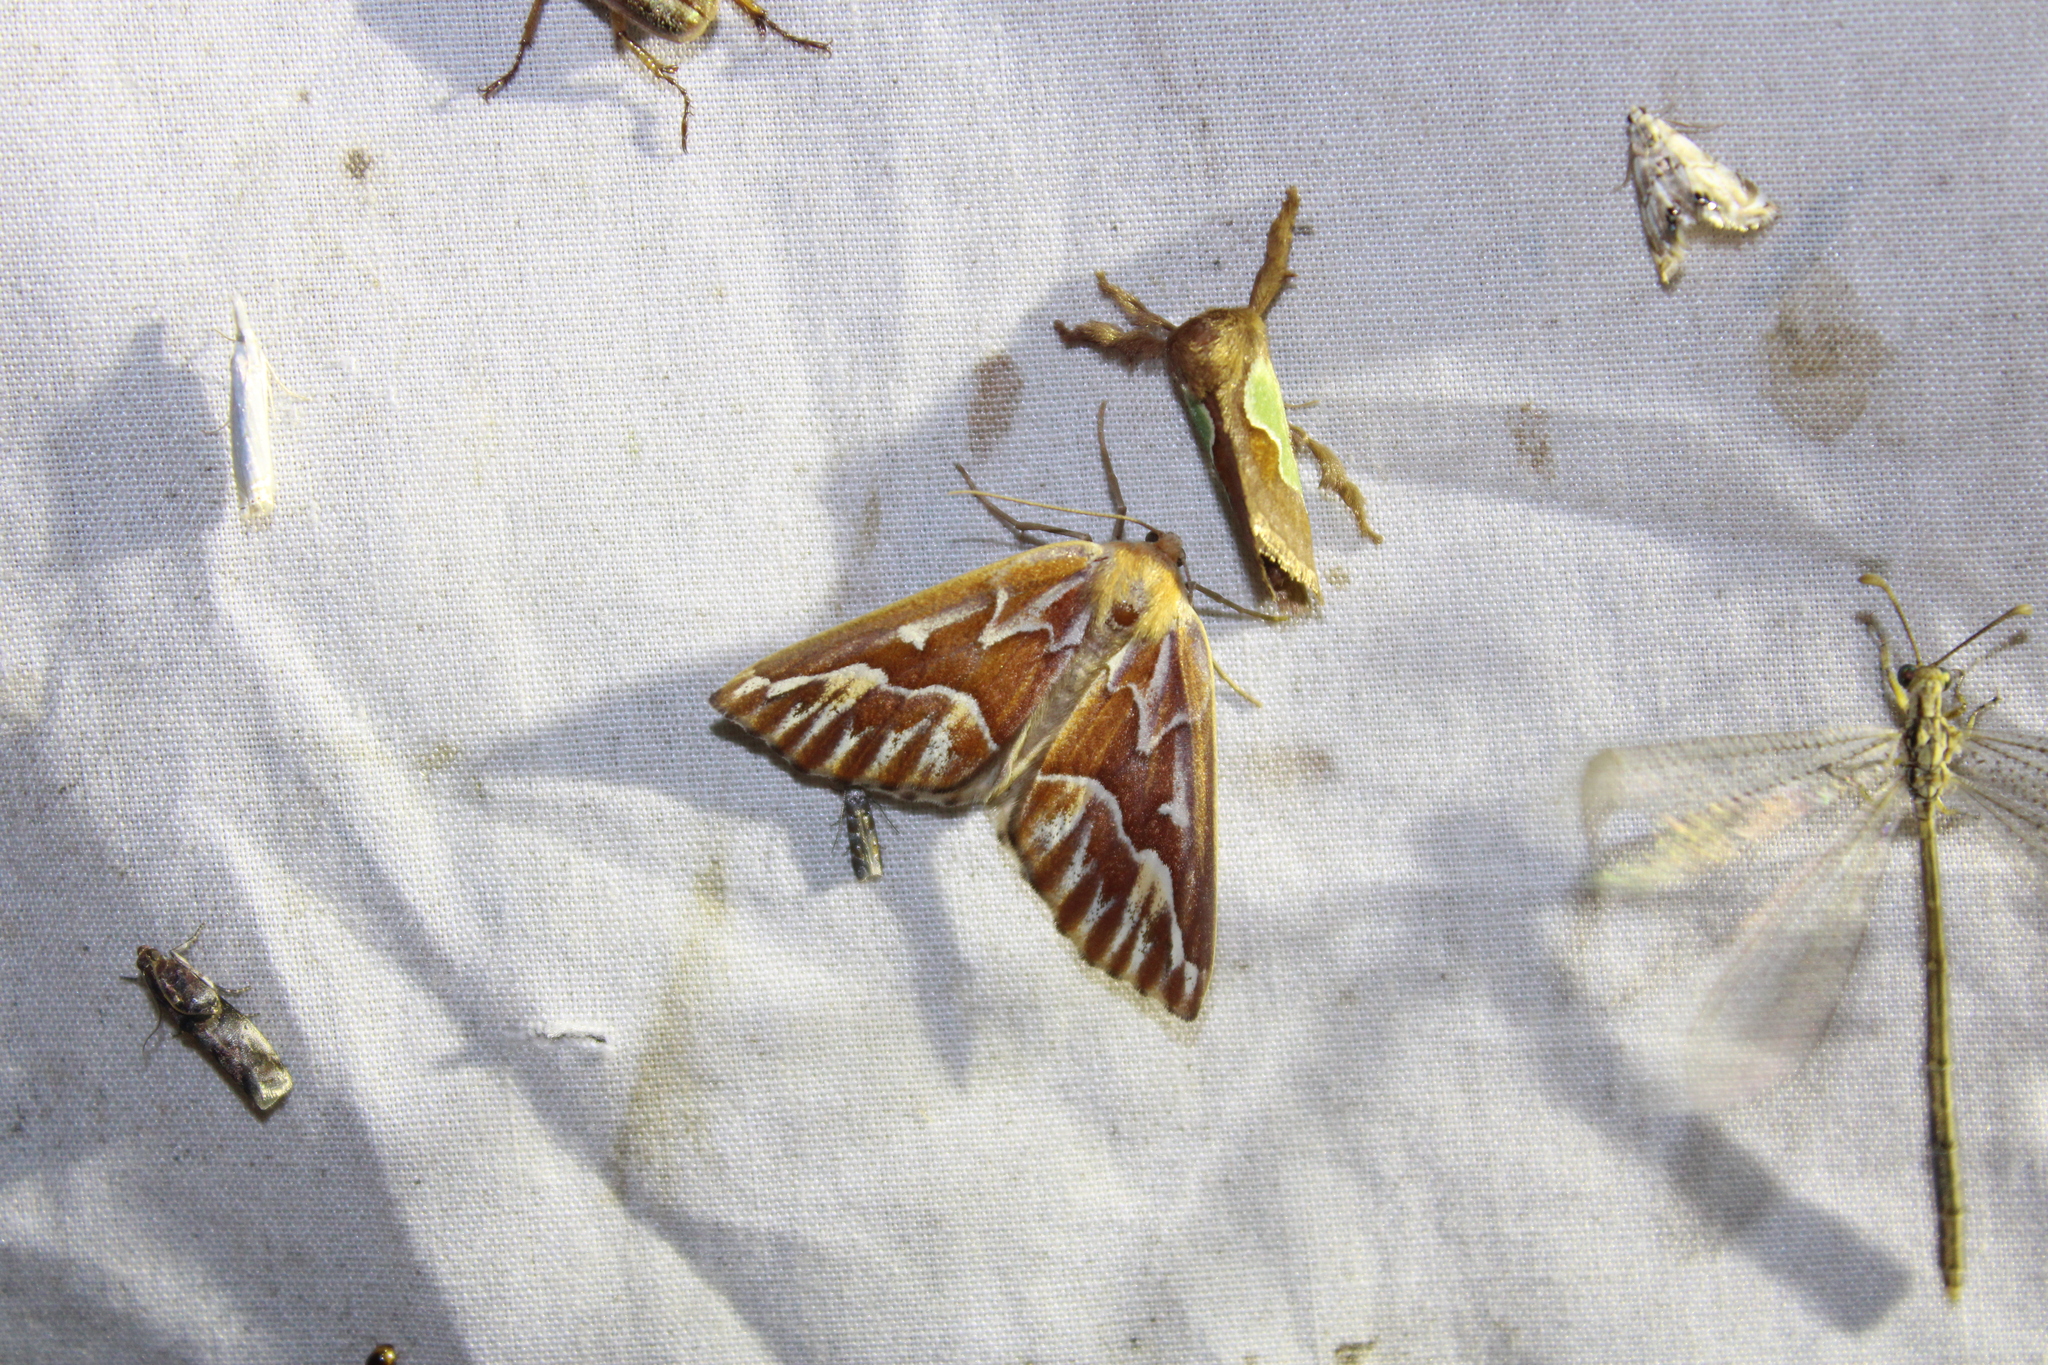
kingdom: Animalia
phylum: Arthropoda
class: Insecta
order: Lepidoptera
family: Geometridae
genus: Caripeta
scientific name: Caripeta piniata
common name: Northern pine looper moth
